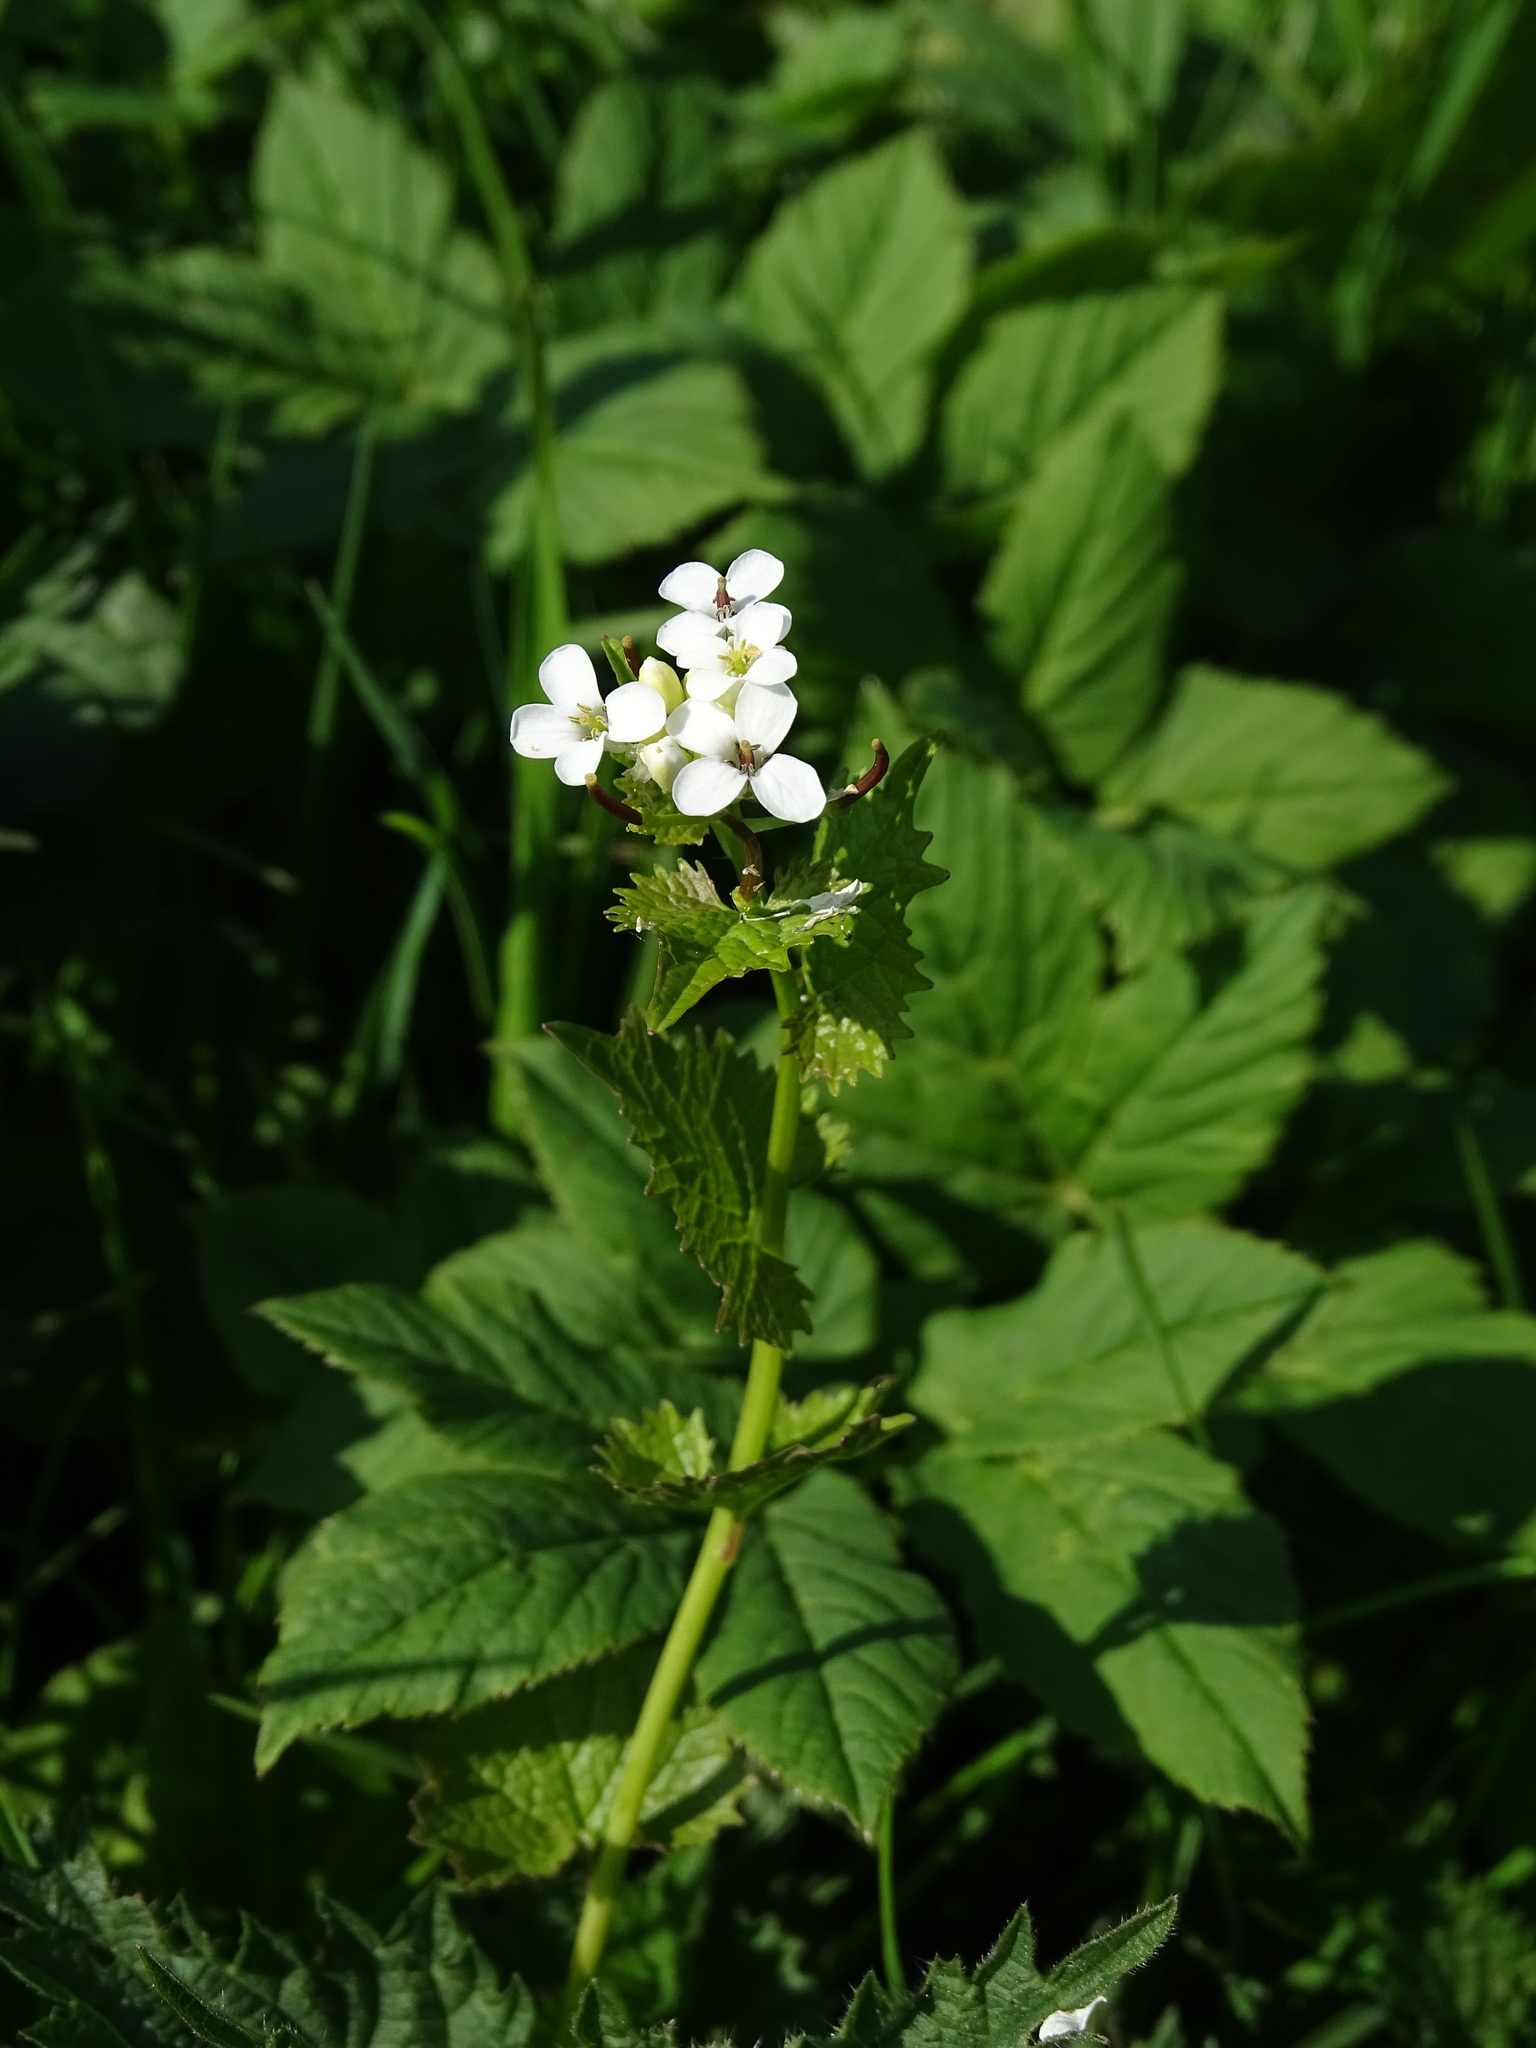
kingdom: Plantae
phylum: Tracheophyta
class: Magnoliopsida
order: Brassicales
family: Brassicaceae
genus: Alliaria
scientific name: Alliaria petiolata
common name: Garlic mustard
